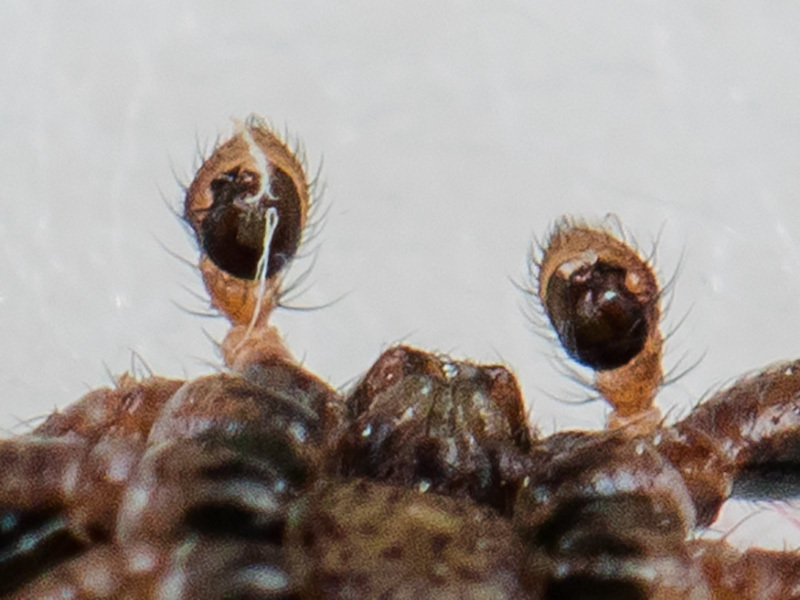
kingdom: Animalia
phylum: Arthropoda
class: Arachnida
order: Araneae
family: Thomisidae
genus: Psammitis
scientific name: Psammitis minor
